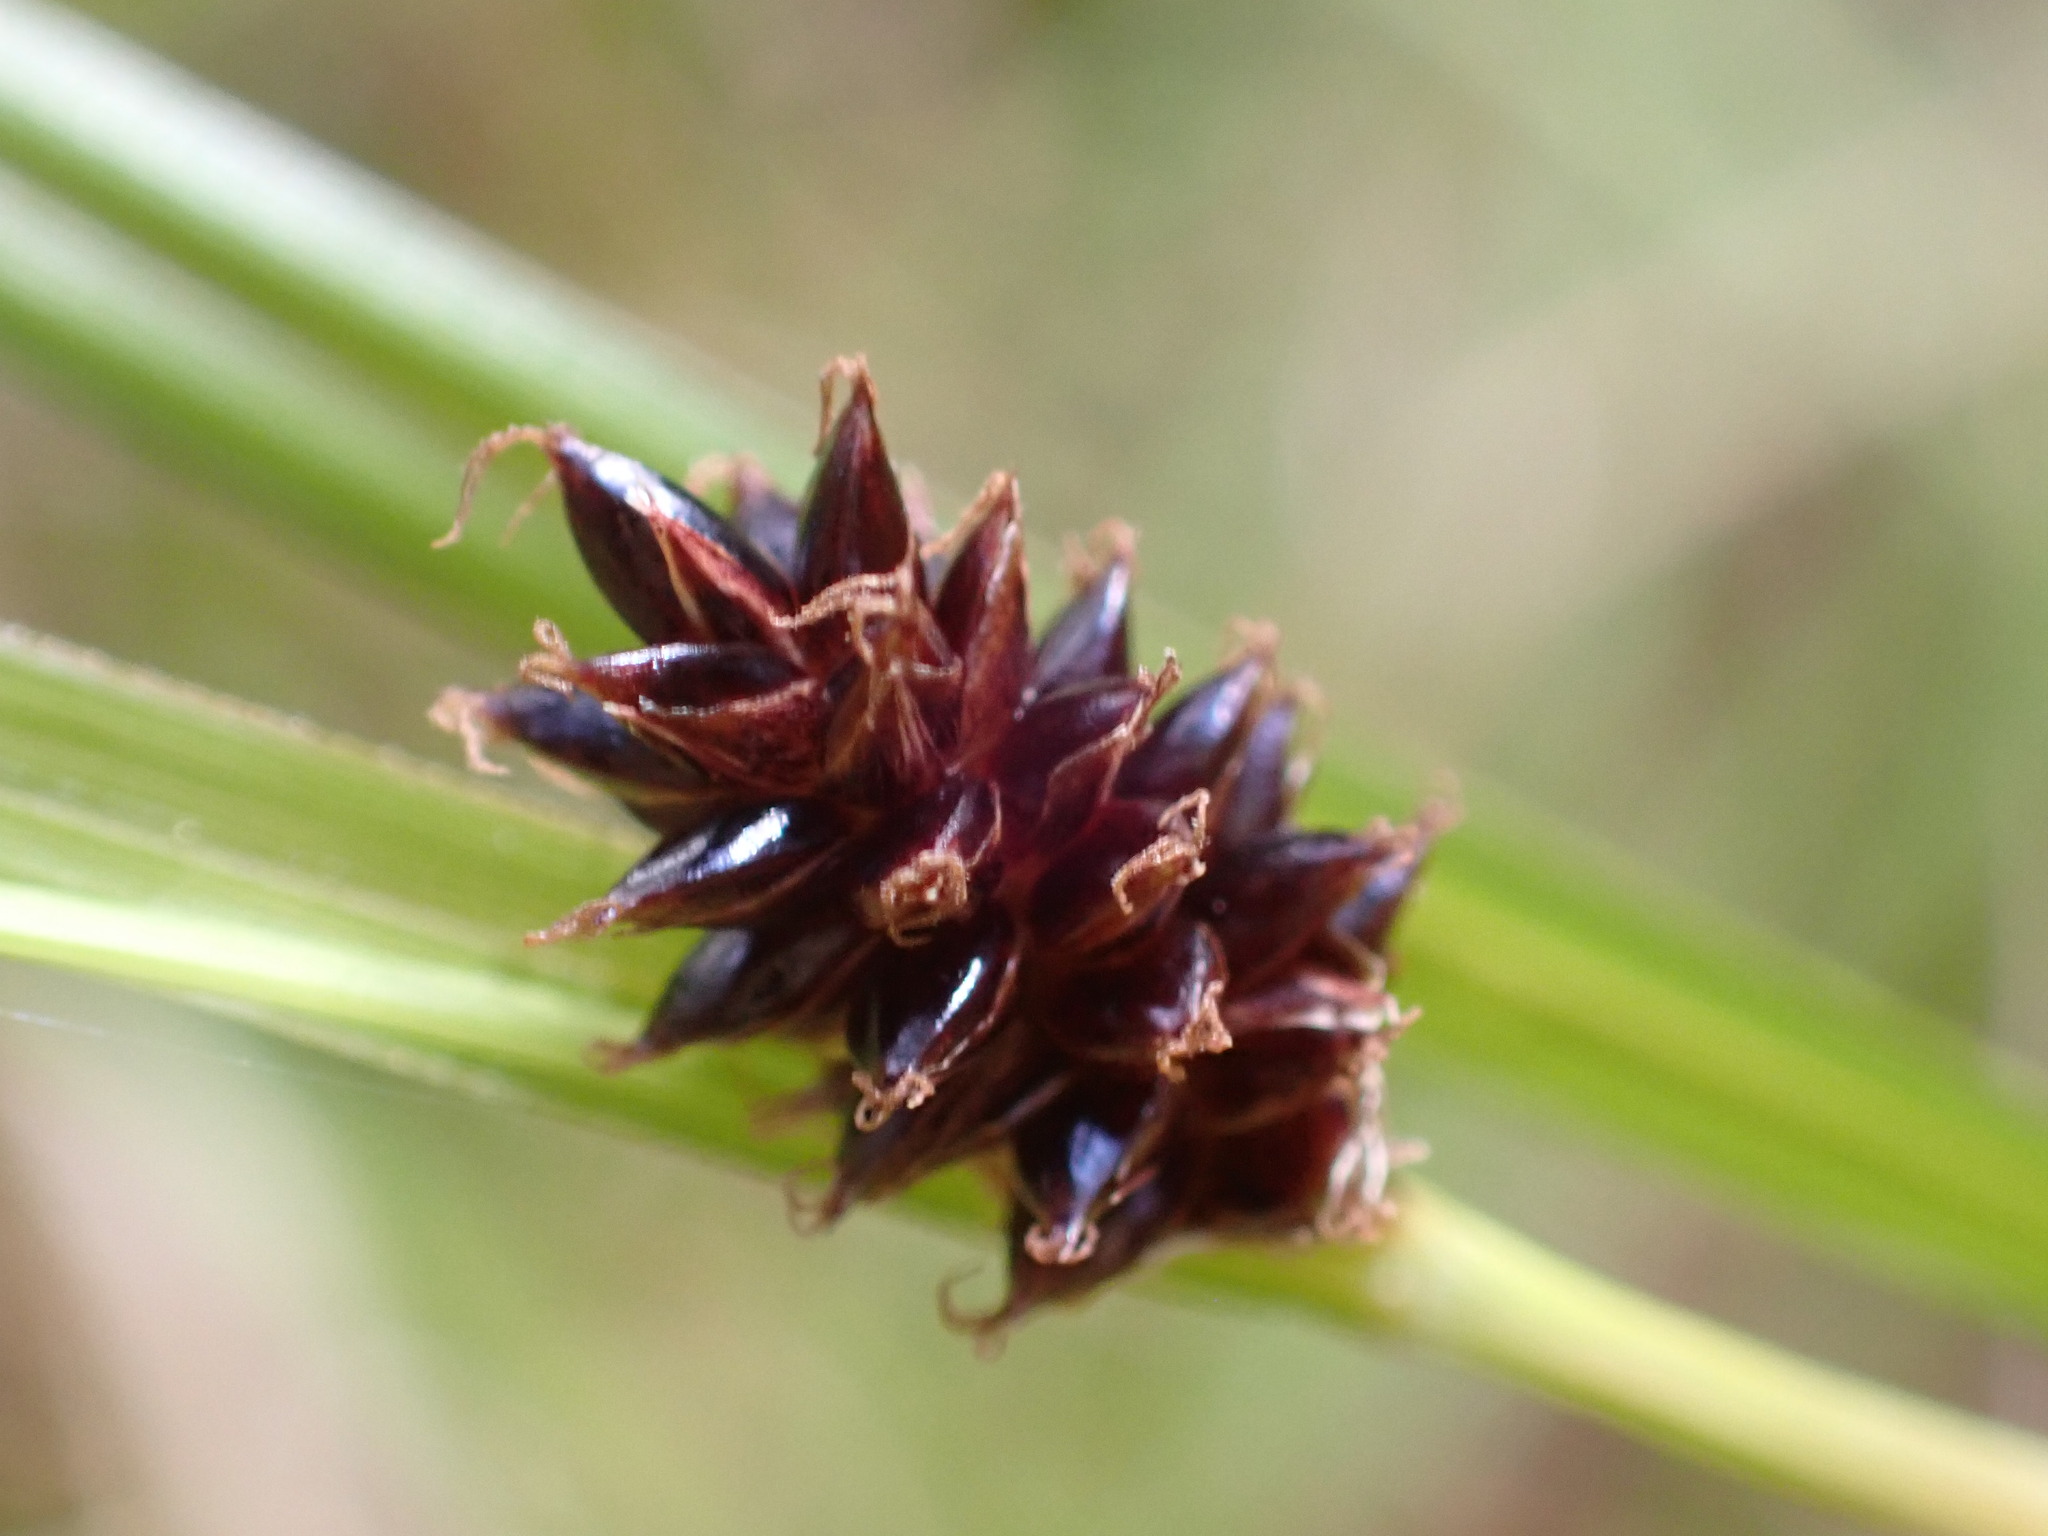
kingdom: Plantae
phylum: Tracheophyta
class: Liliopsida
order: Poales
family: Cyperaceae
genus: Carex
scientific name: Carex dissita
